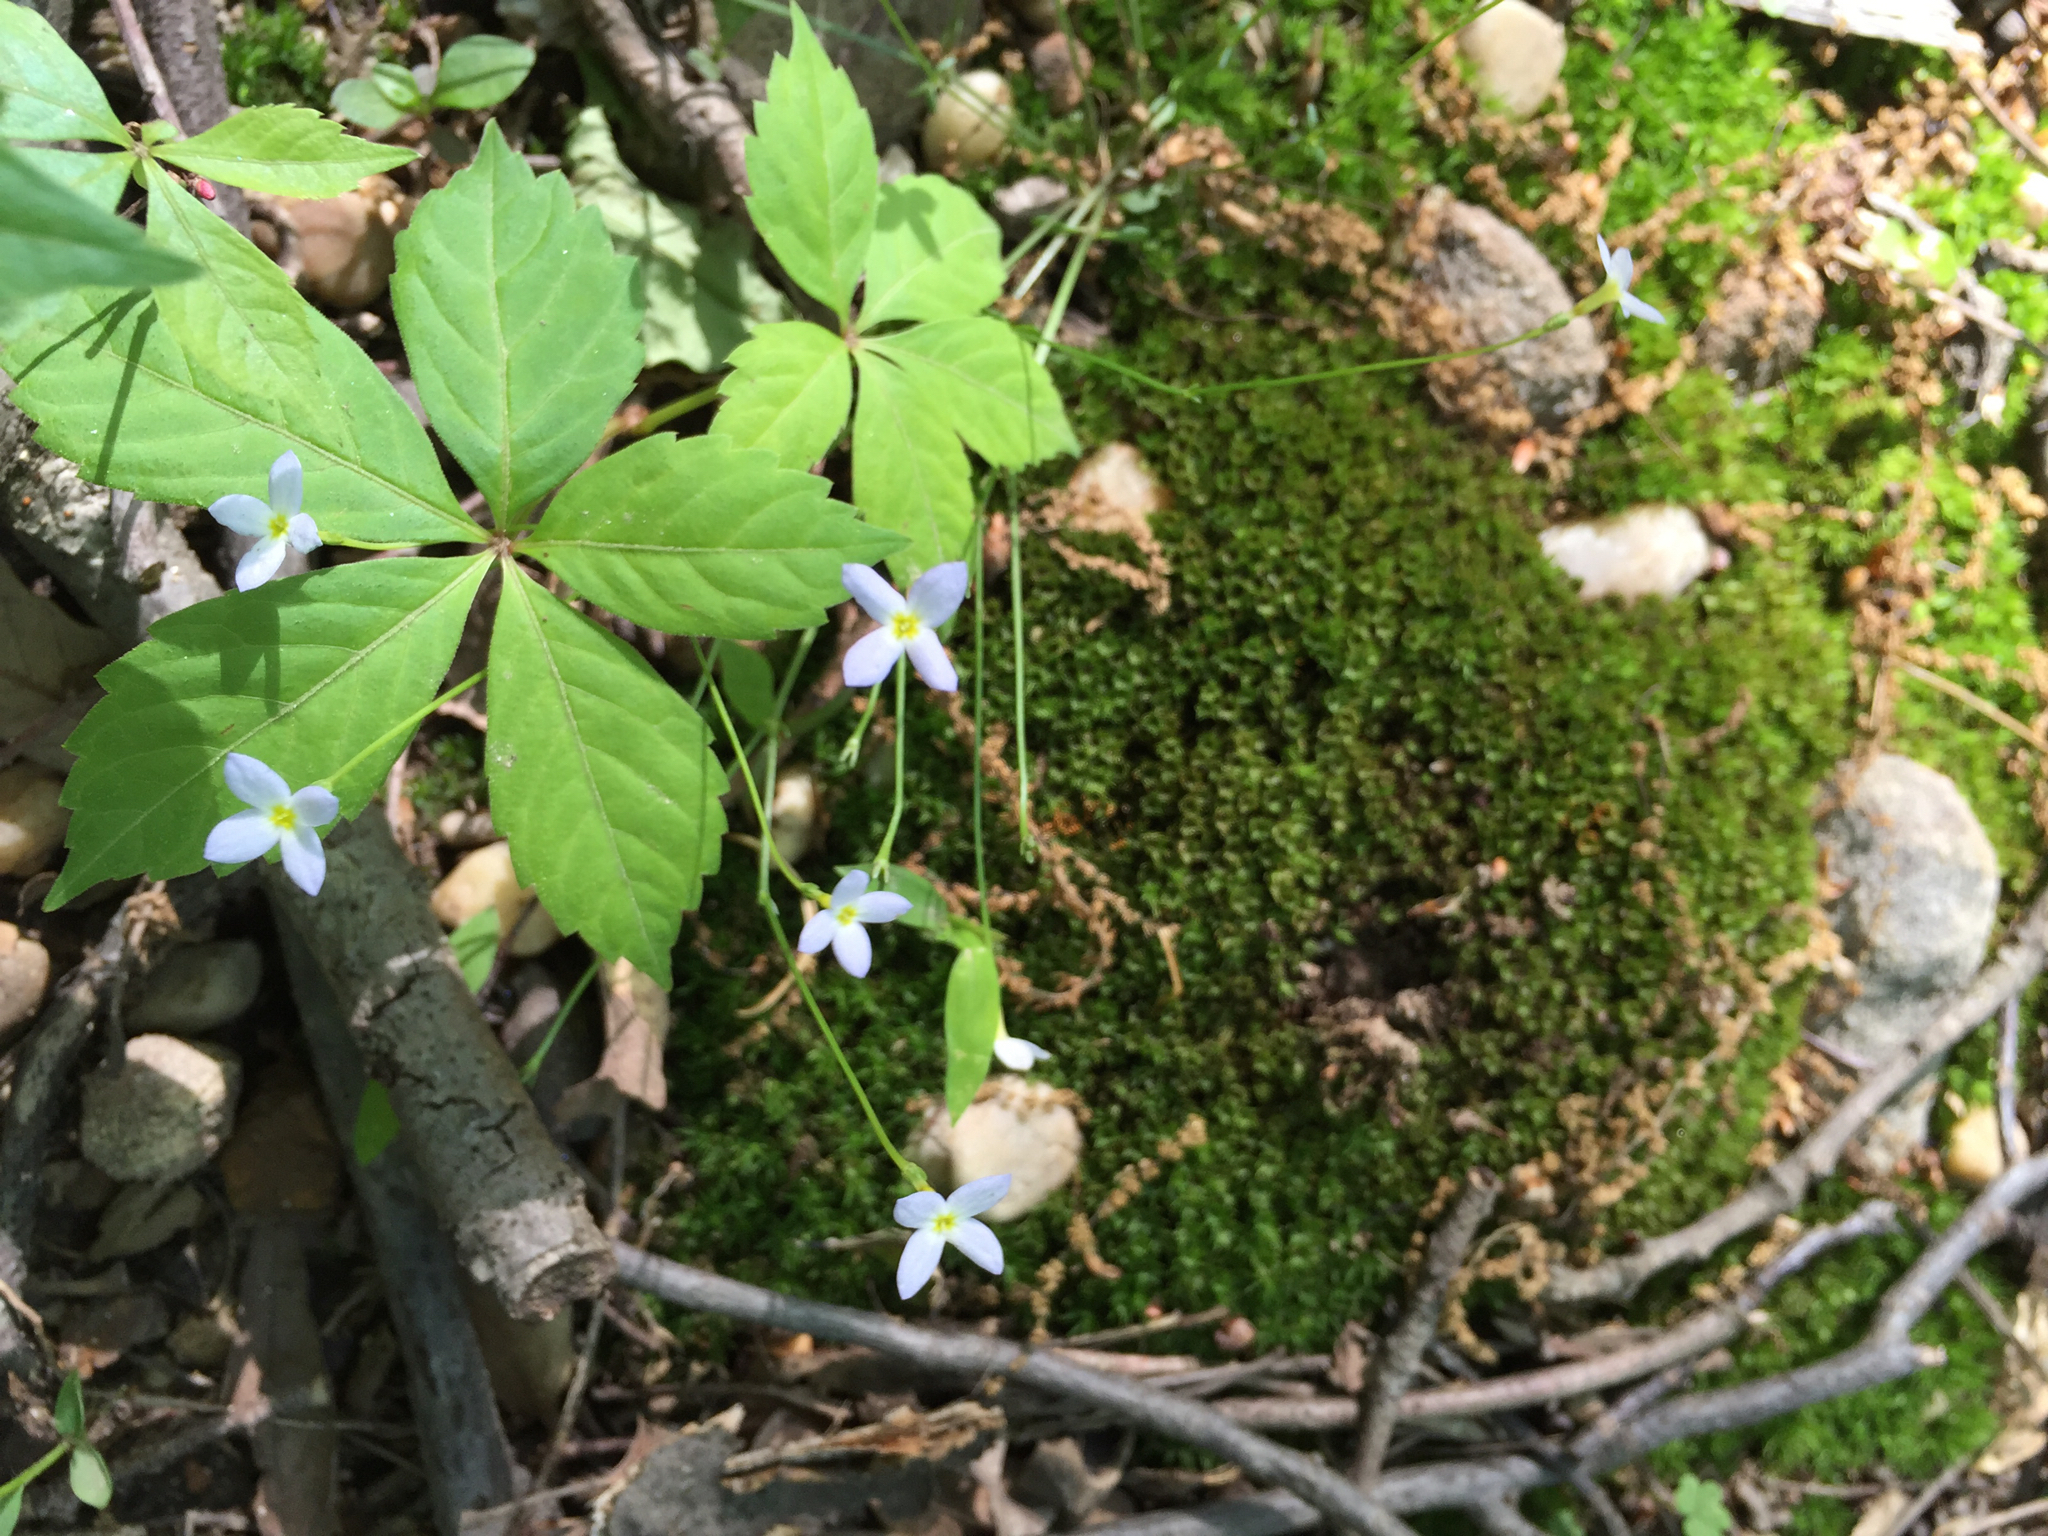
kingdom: Plantae
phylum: Tracheophyta
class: Magnoliopsida
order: Gentianales
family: Rubiaceae
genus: Houstonia
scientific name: Houstonia caerulea
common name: Bluets
